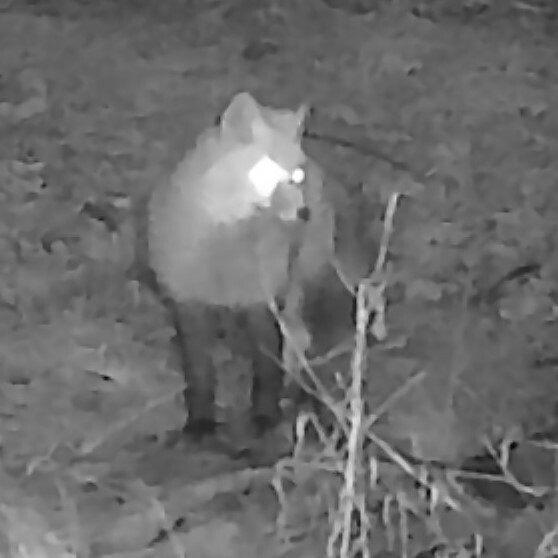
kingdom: Animalia
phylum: Chordata
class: Mammalia
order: Carnivora
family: Canidae
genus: Vulpes
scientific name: Vulpes vulpes
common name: Red fox
